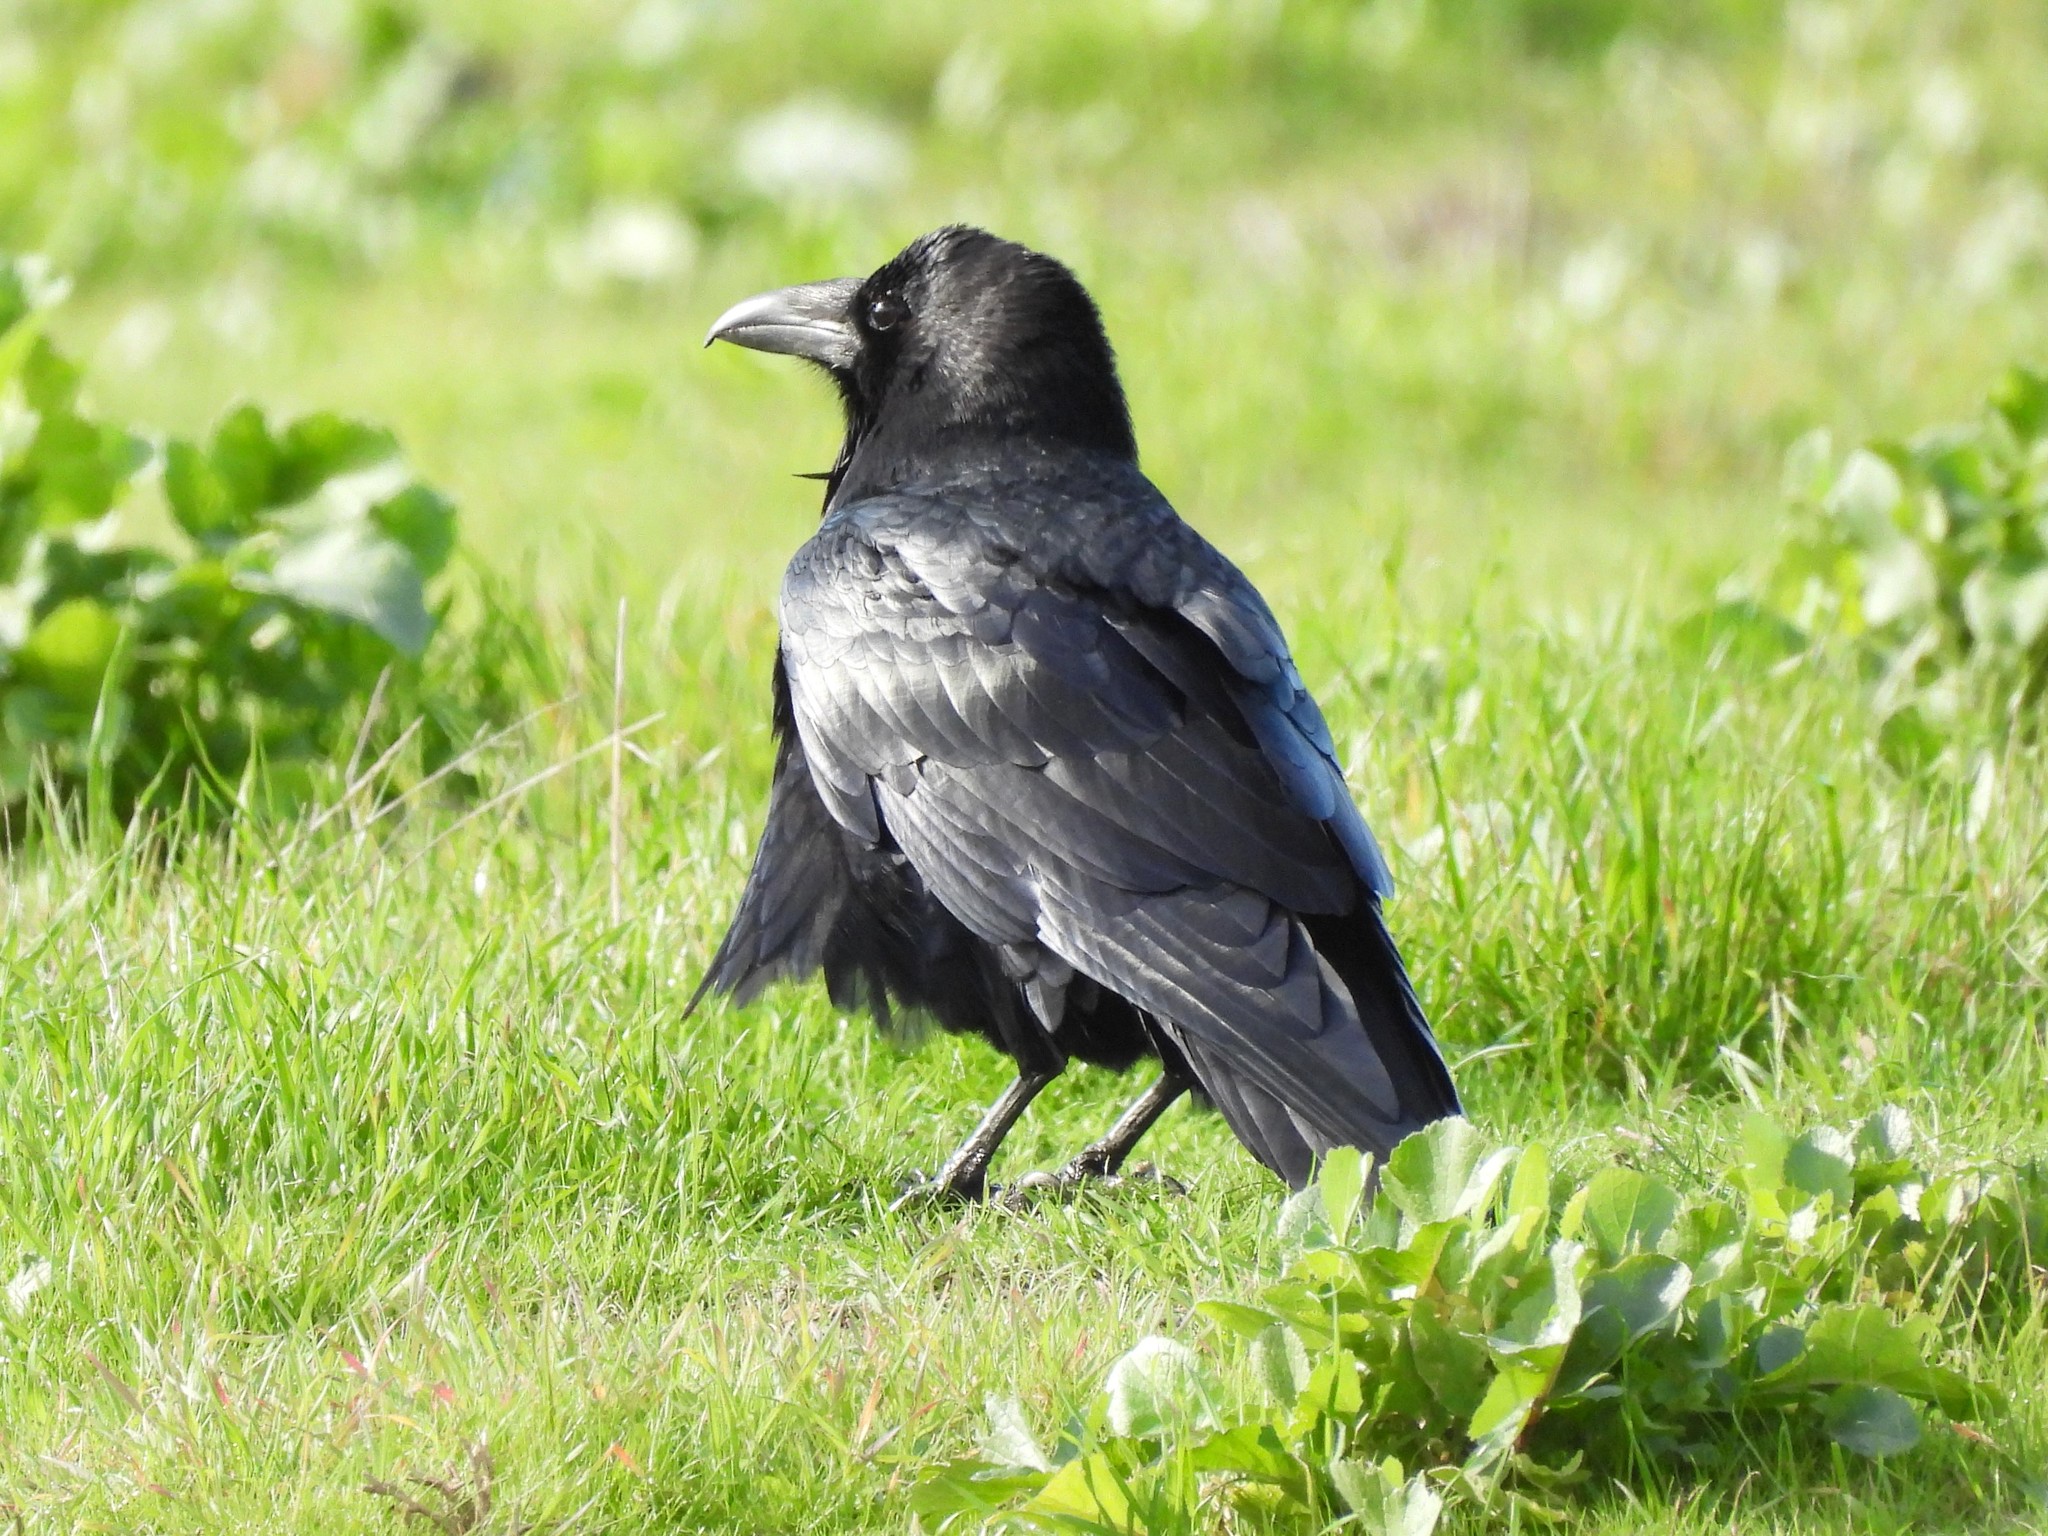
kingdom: Animalia
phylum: Chordata
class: Aves
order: Passeriformes
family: Corvidae
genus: Corvus
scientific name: Corvus corax
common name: Common raven
